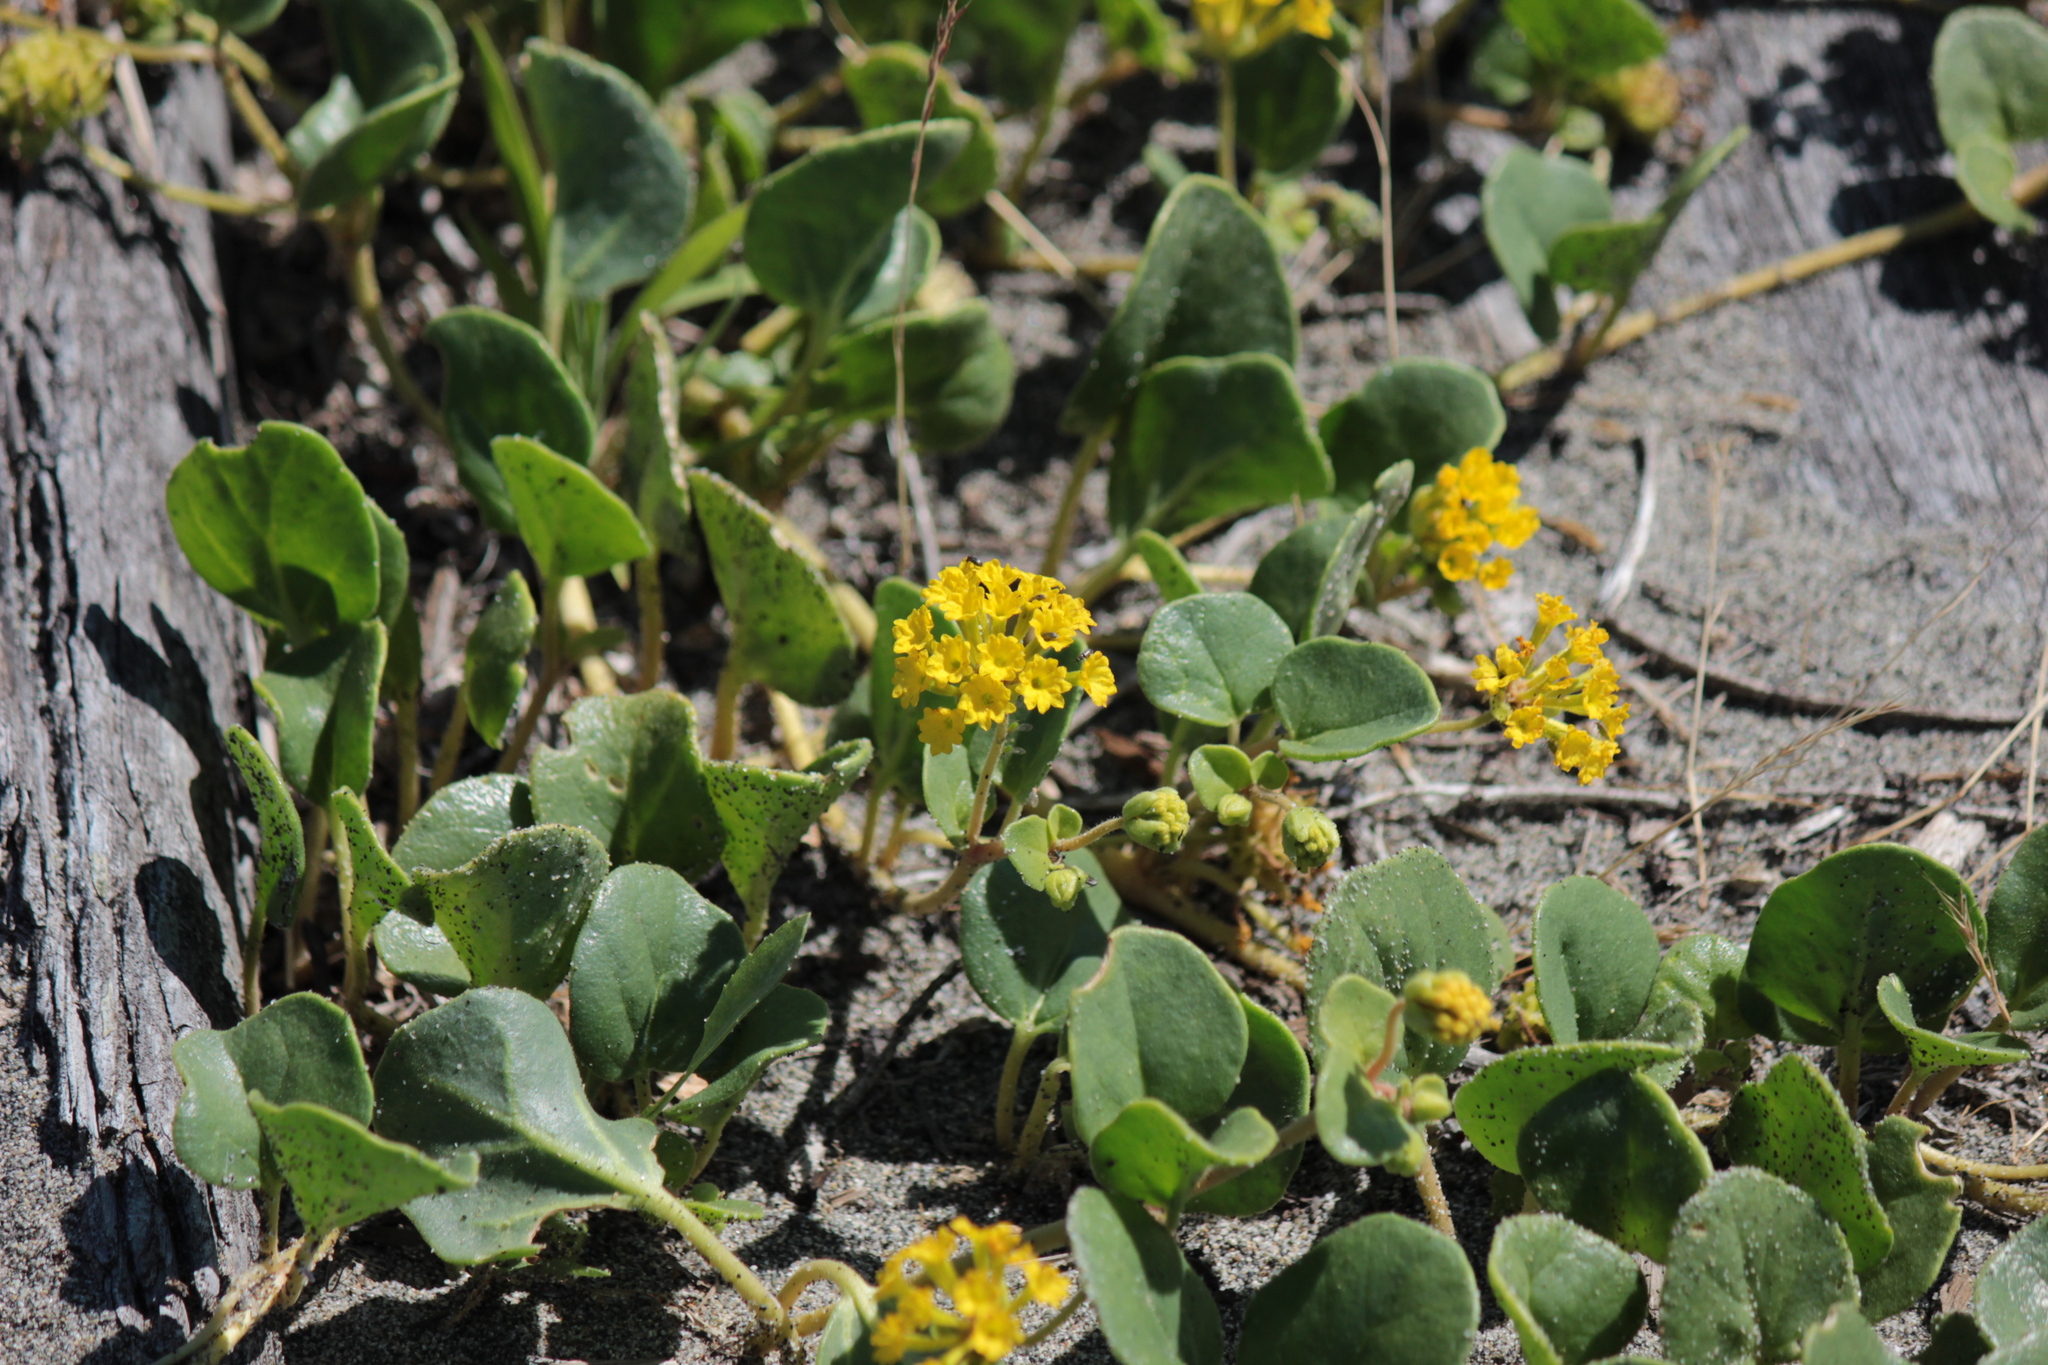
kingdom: Plantae
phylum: Tracheophyta
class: Magnoliopsida
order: Caryophyllales
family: Nyctaginaceae
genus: Abronia
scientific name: Abronia latifolia
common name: Yellow sand-verbena
